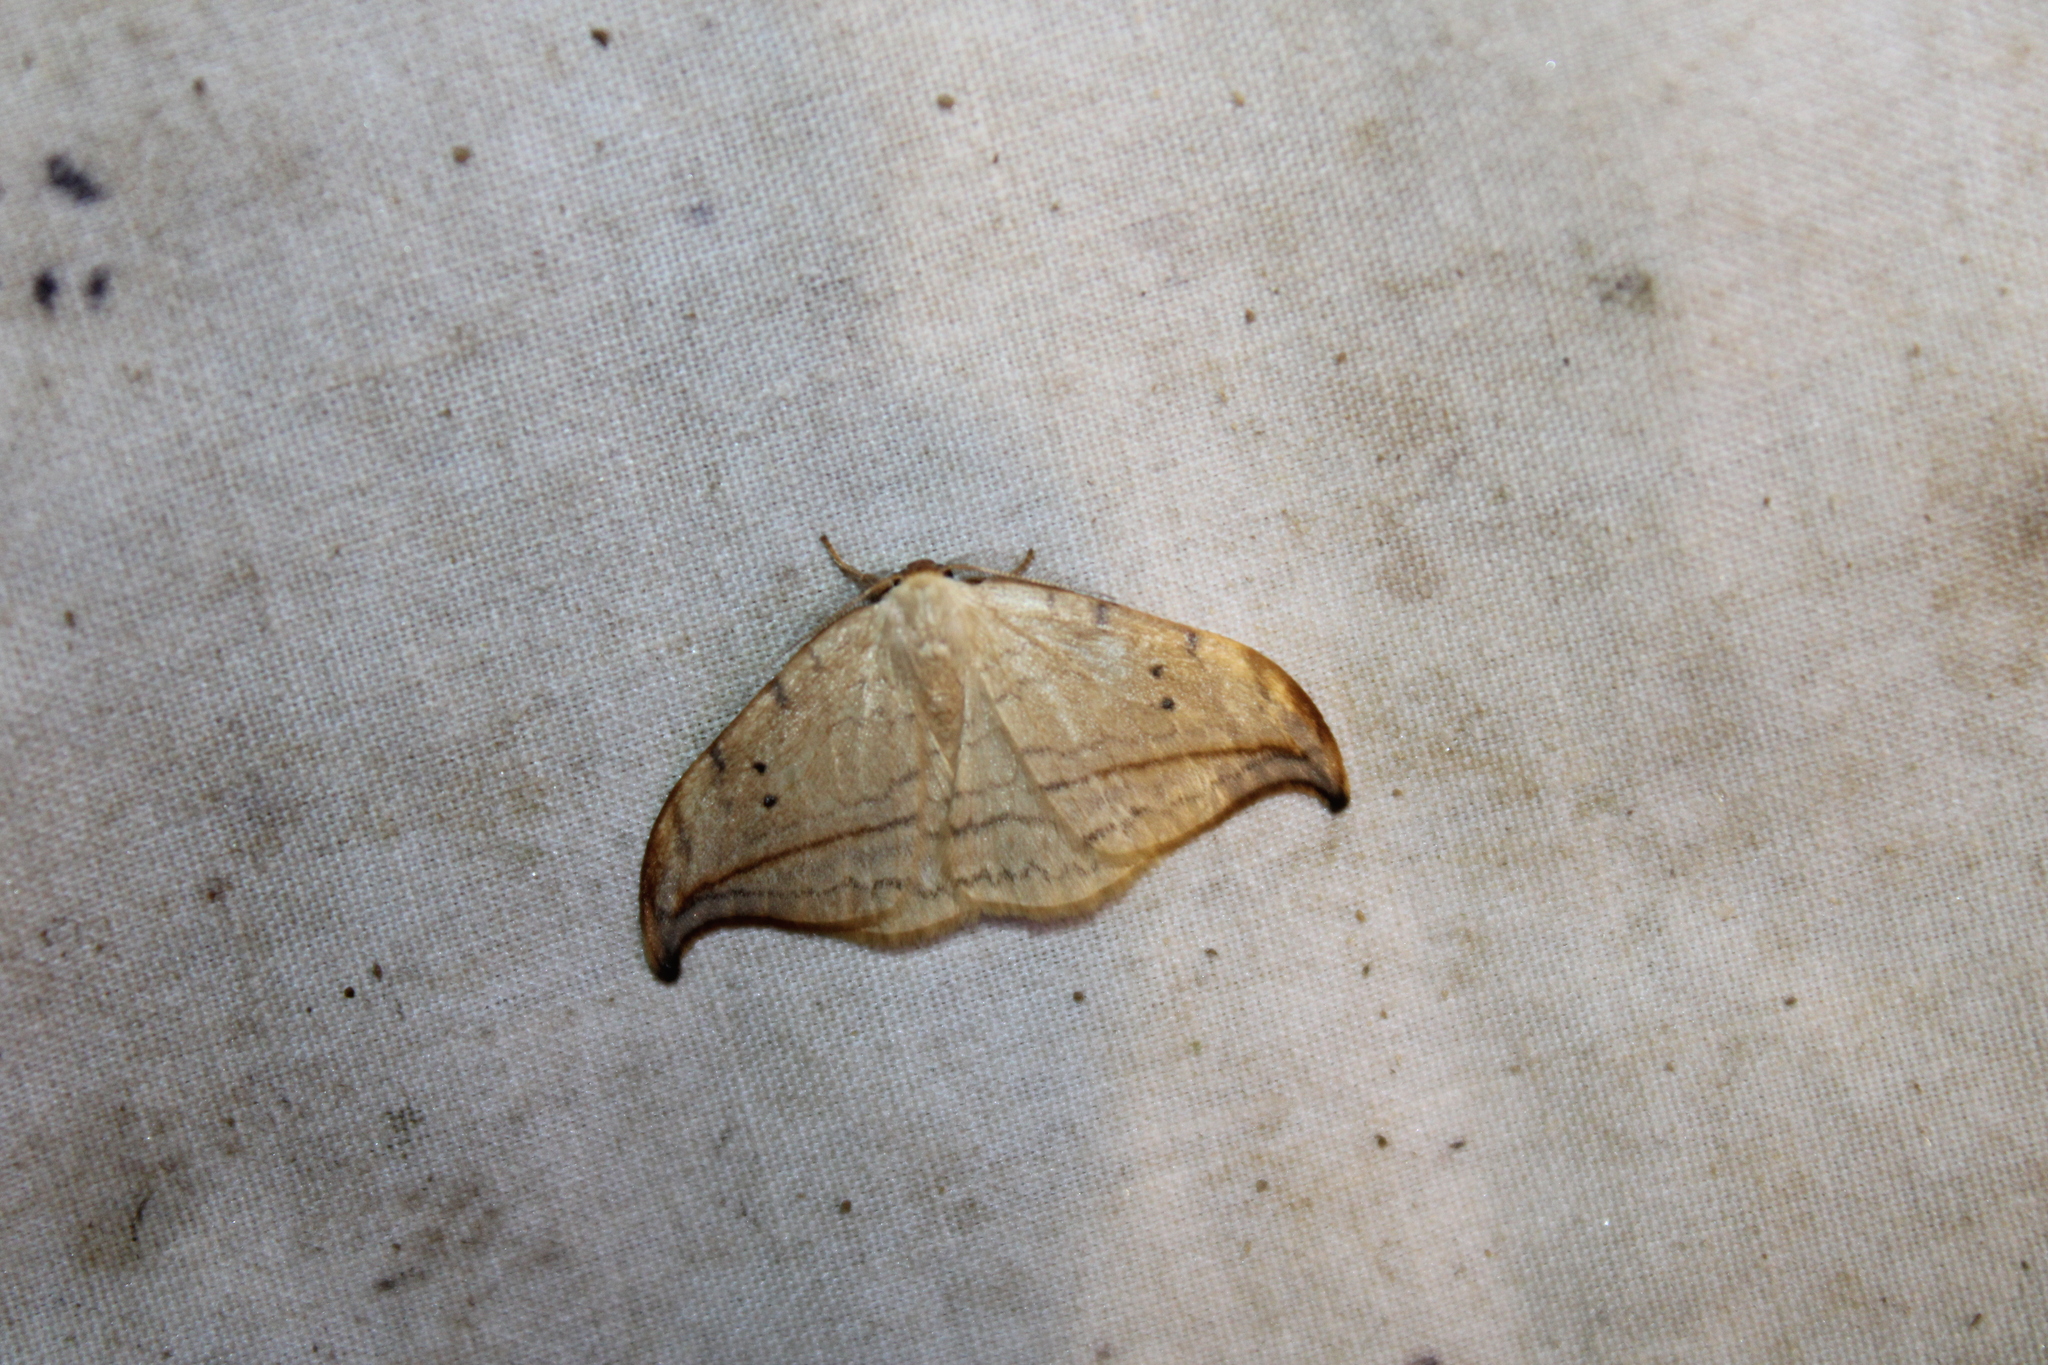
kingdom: Animalia
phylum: Arthropoda
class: Insecta
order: Lepidoptera
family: Drepanidae
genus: Drepana
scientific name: Drepana arcuata
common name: Arched hooktip moth
